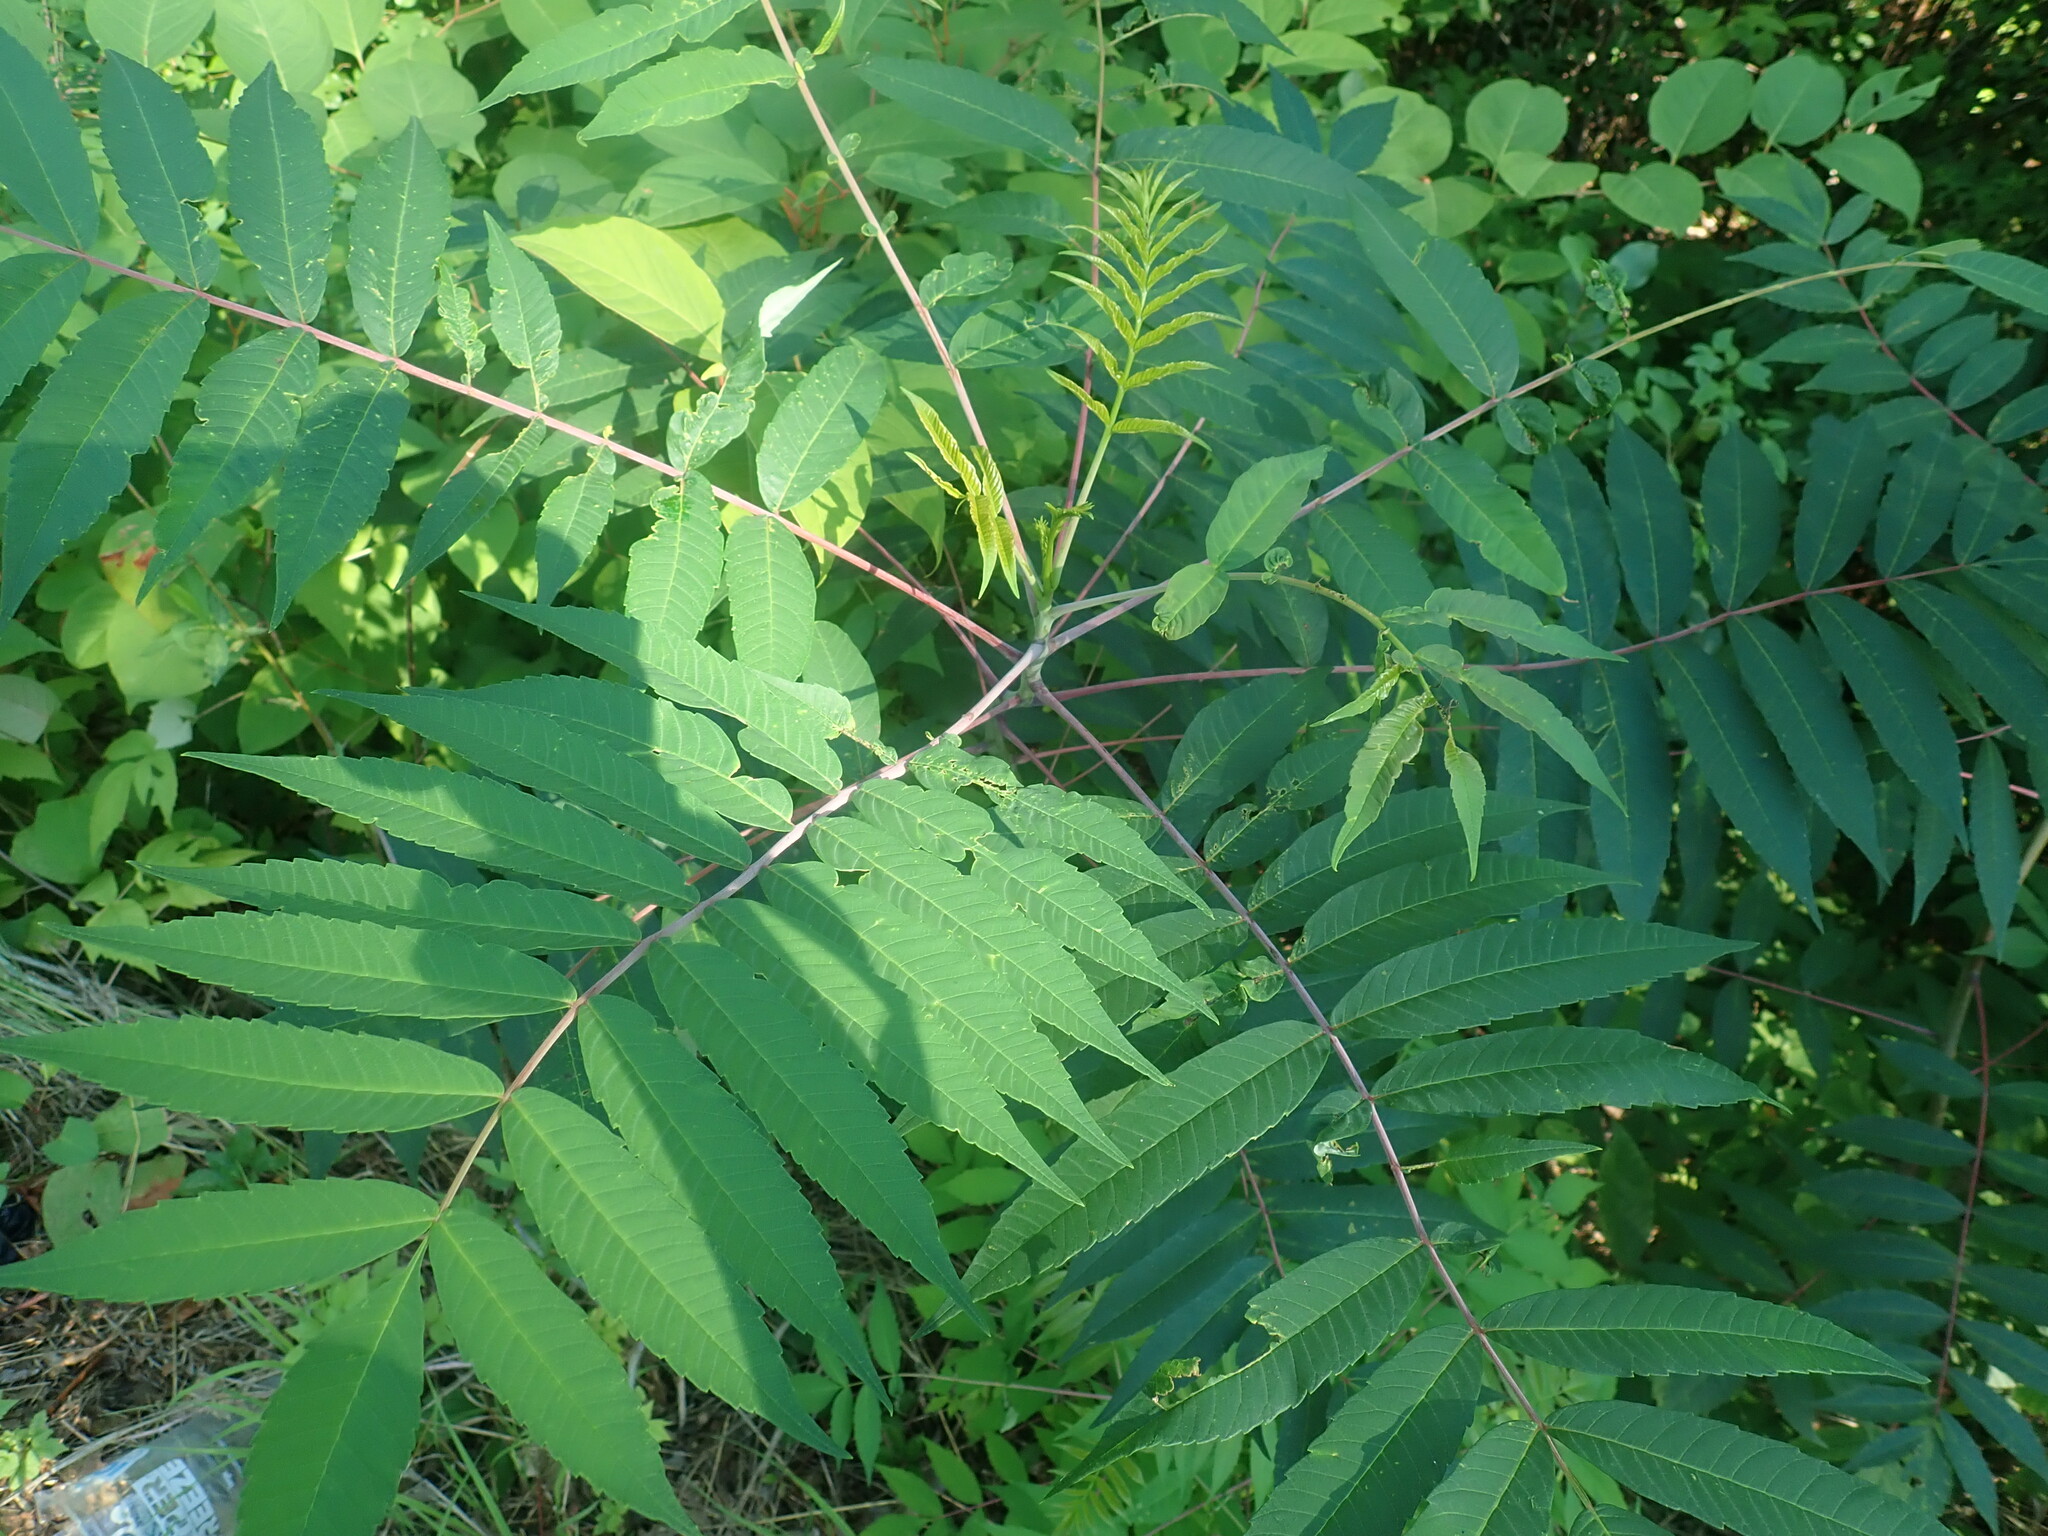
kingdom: Plantae
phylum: Tracheophyta
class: Magnoliopsida
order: Sapindales
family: Anacardiaceae
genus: Rhus
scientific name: Rhus glabra
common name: Scarlet sumac
